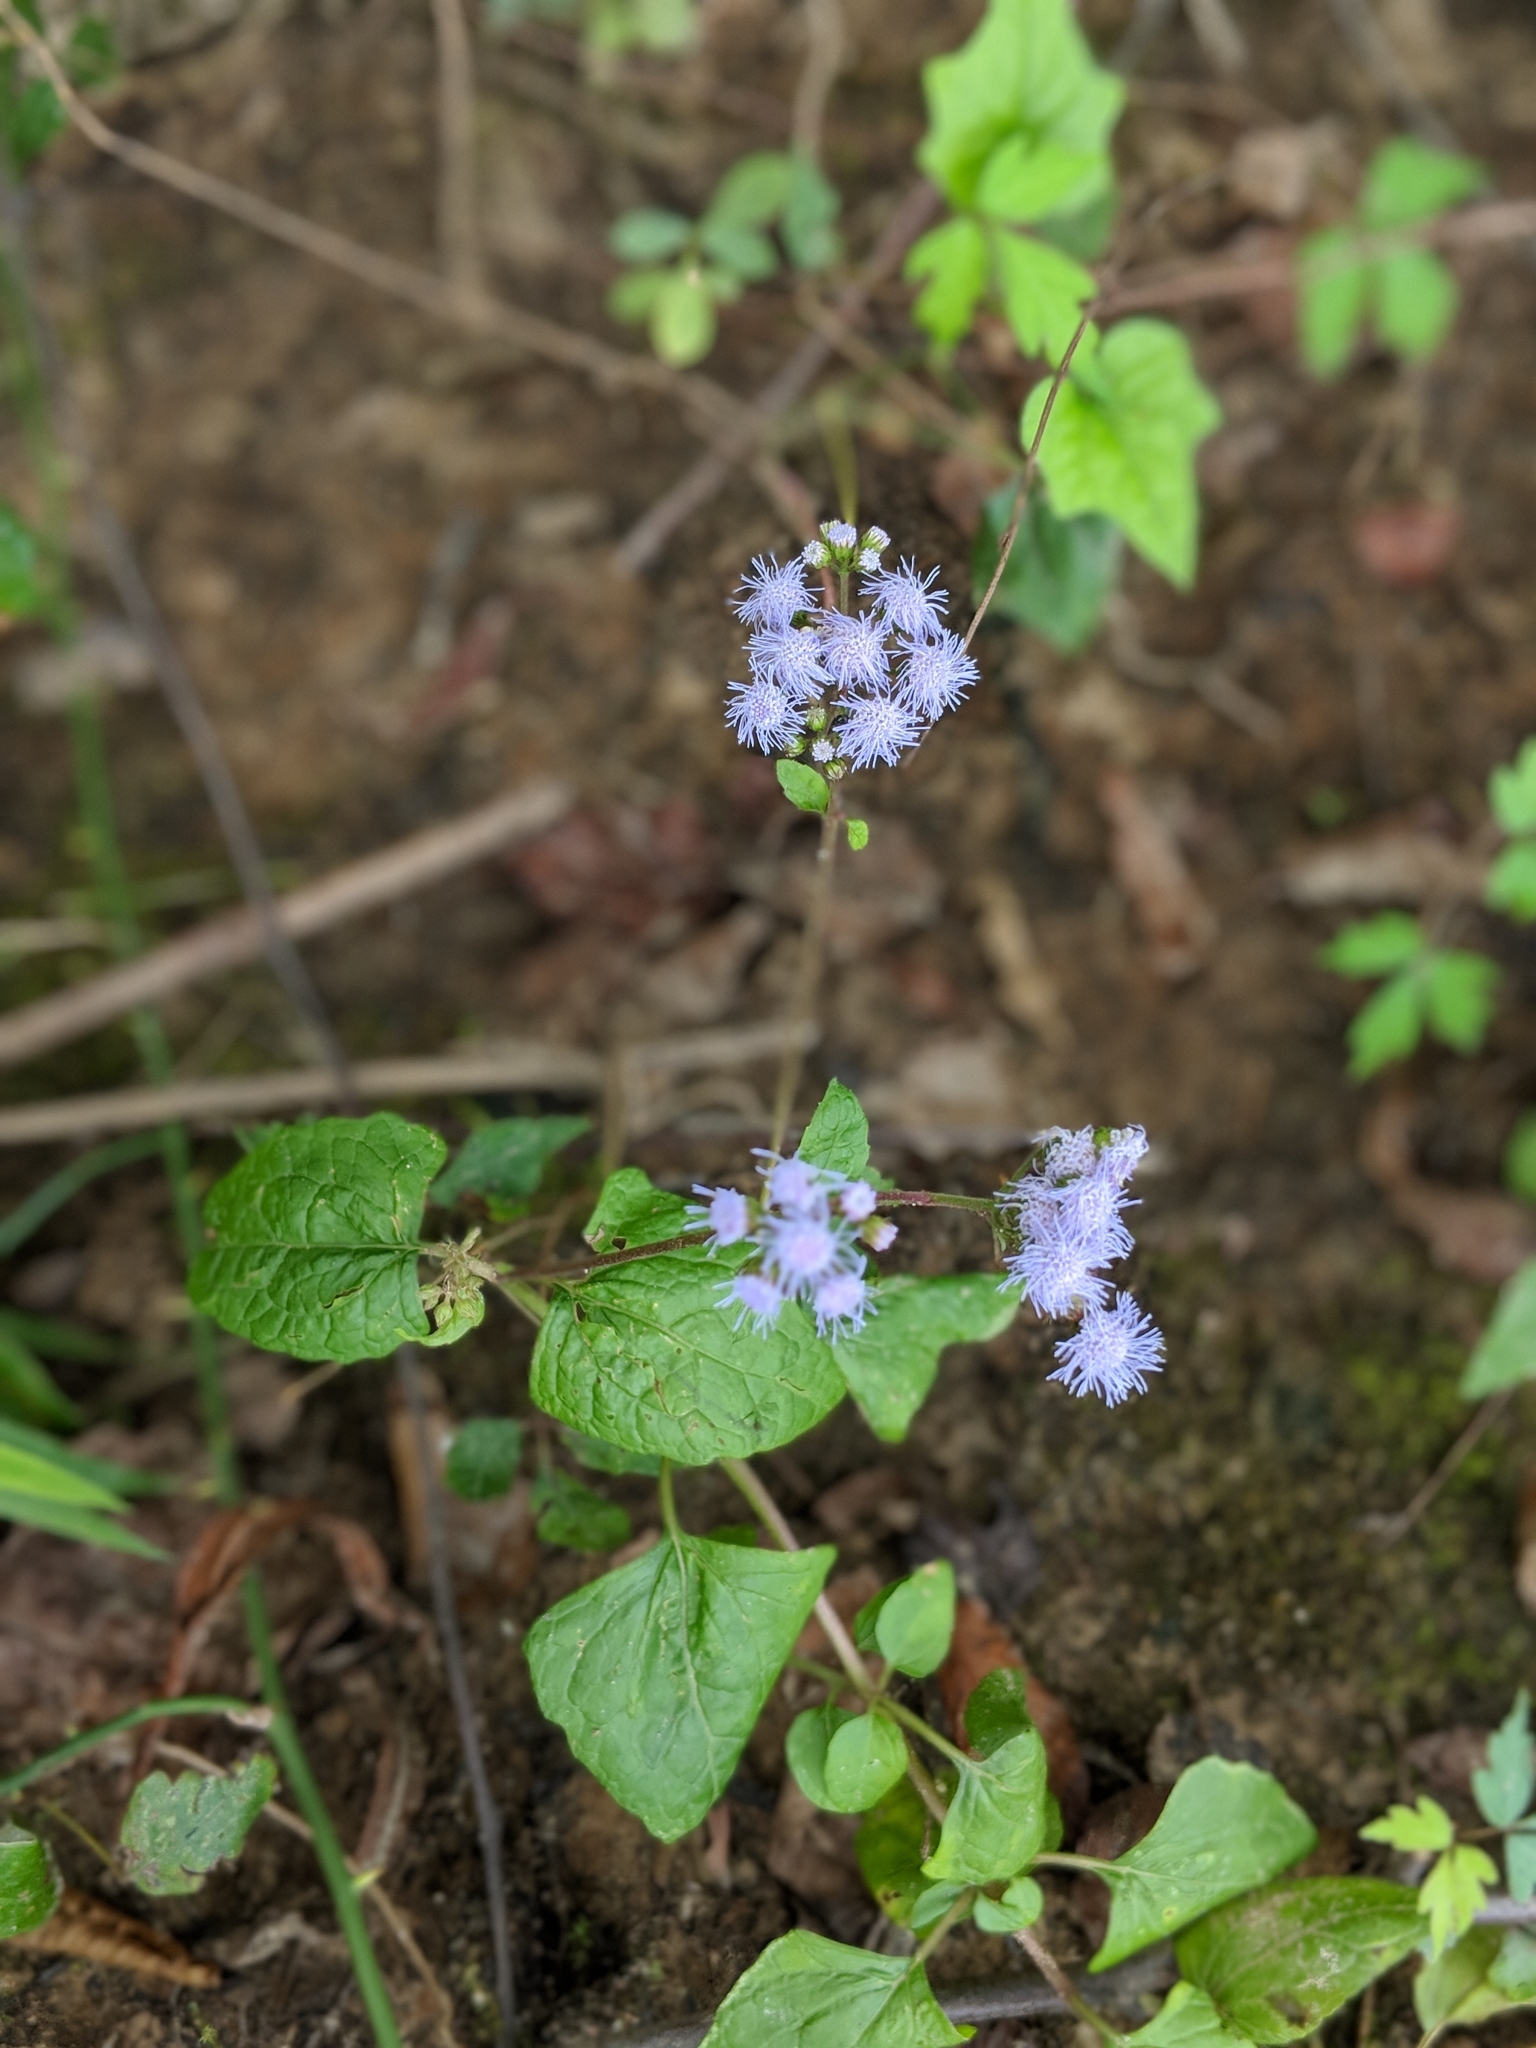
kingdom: Plantae
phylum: Tracheophyta
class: Magnoliopsida
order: Asterales
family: Asteraceae
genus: Conoclinium
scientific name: Conoclinium coelestinum
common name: Blue mistflower
